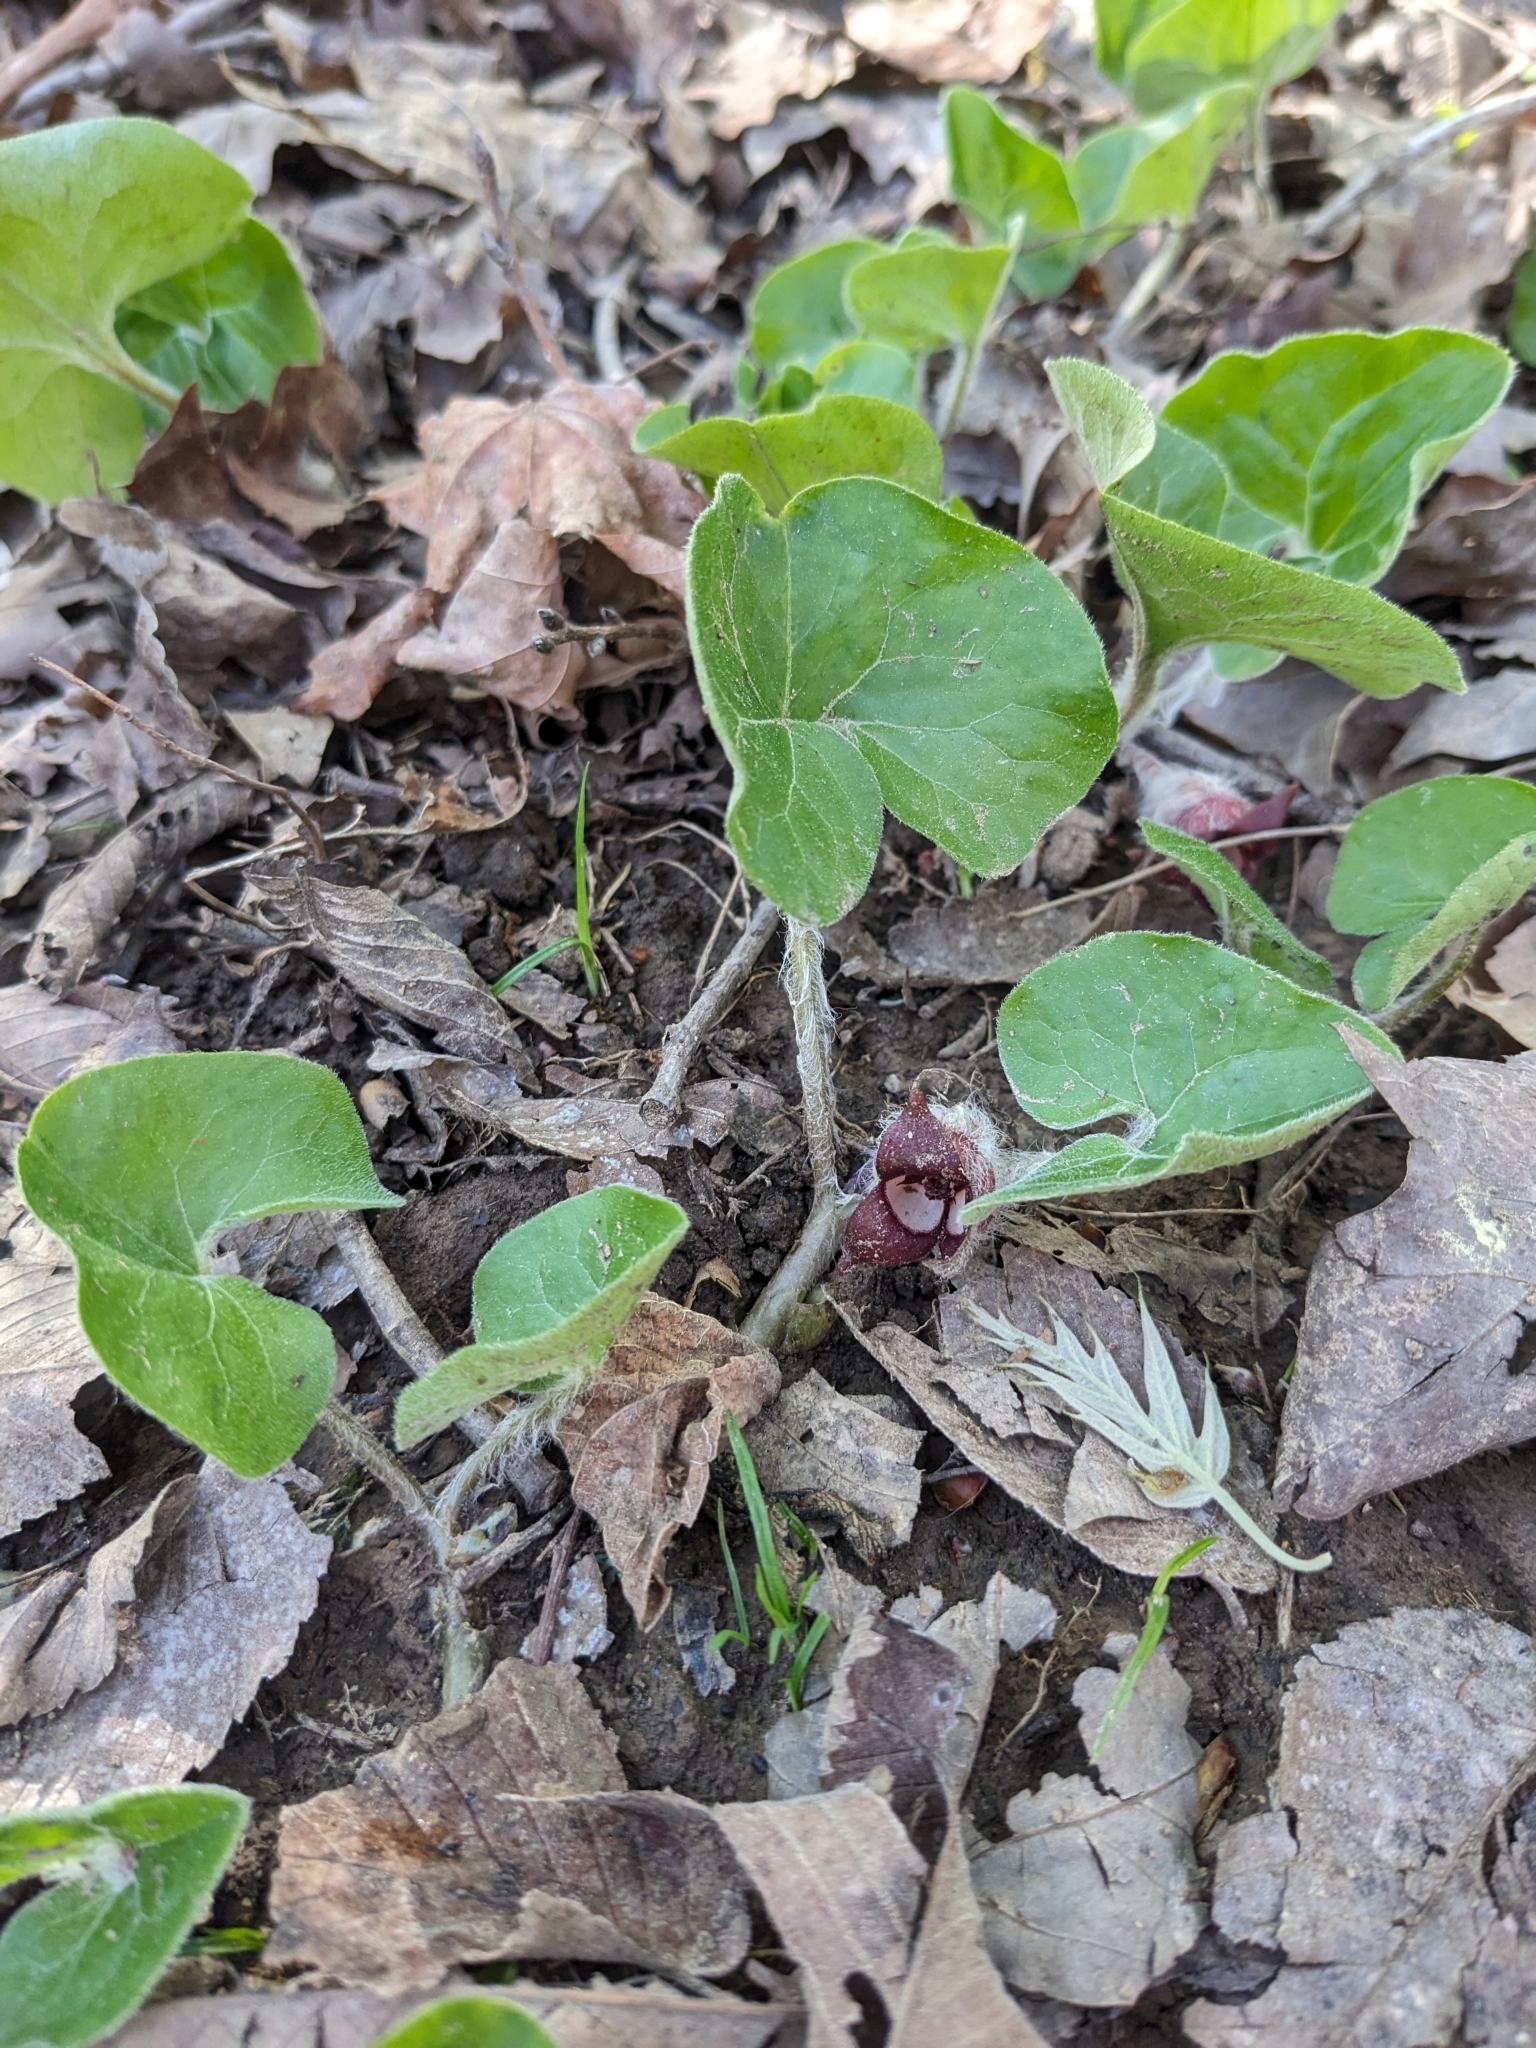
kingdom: Plantae
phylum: Tracheophyta
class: Magnoliopsida
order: Piperales
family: Aristolochiaceae
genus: Asarum
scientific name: Asarum canadense
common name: Wild ginger
